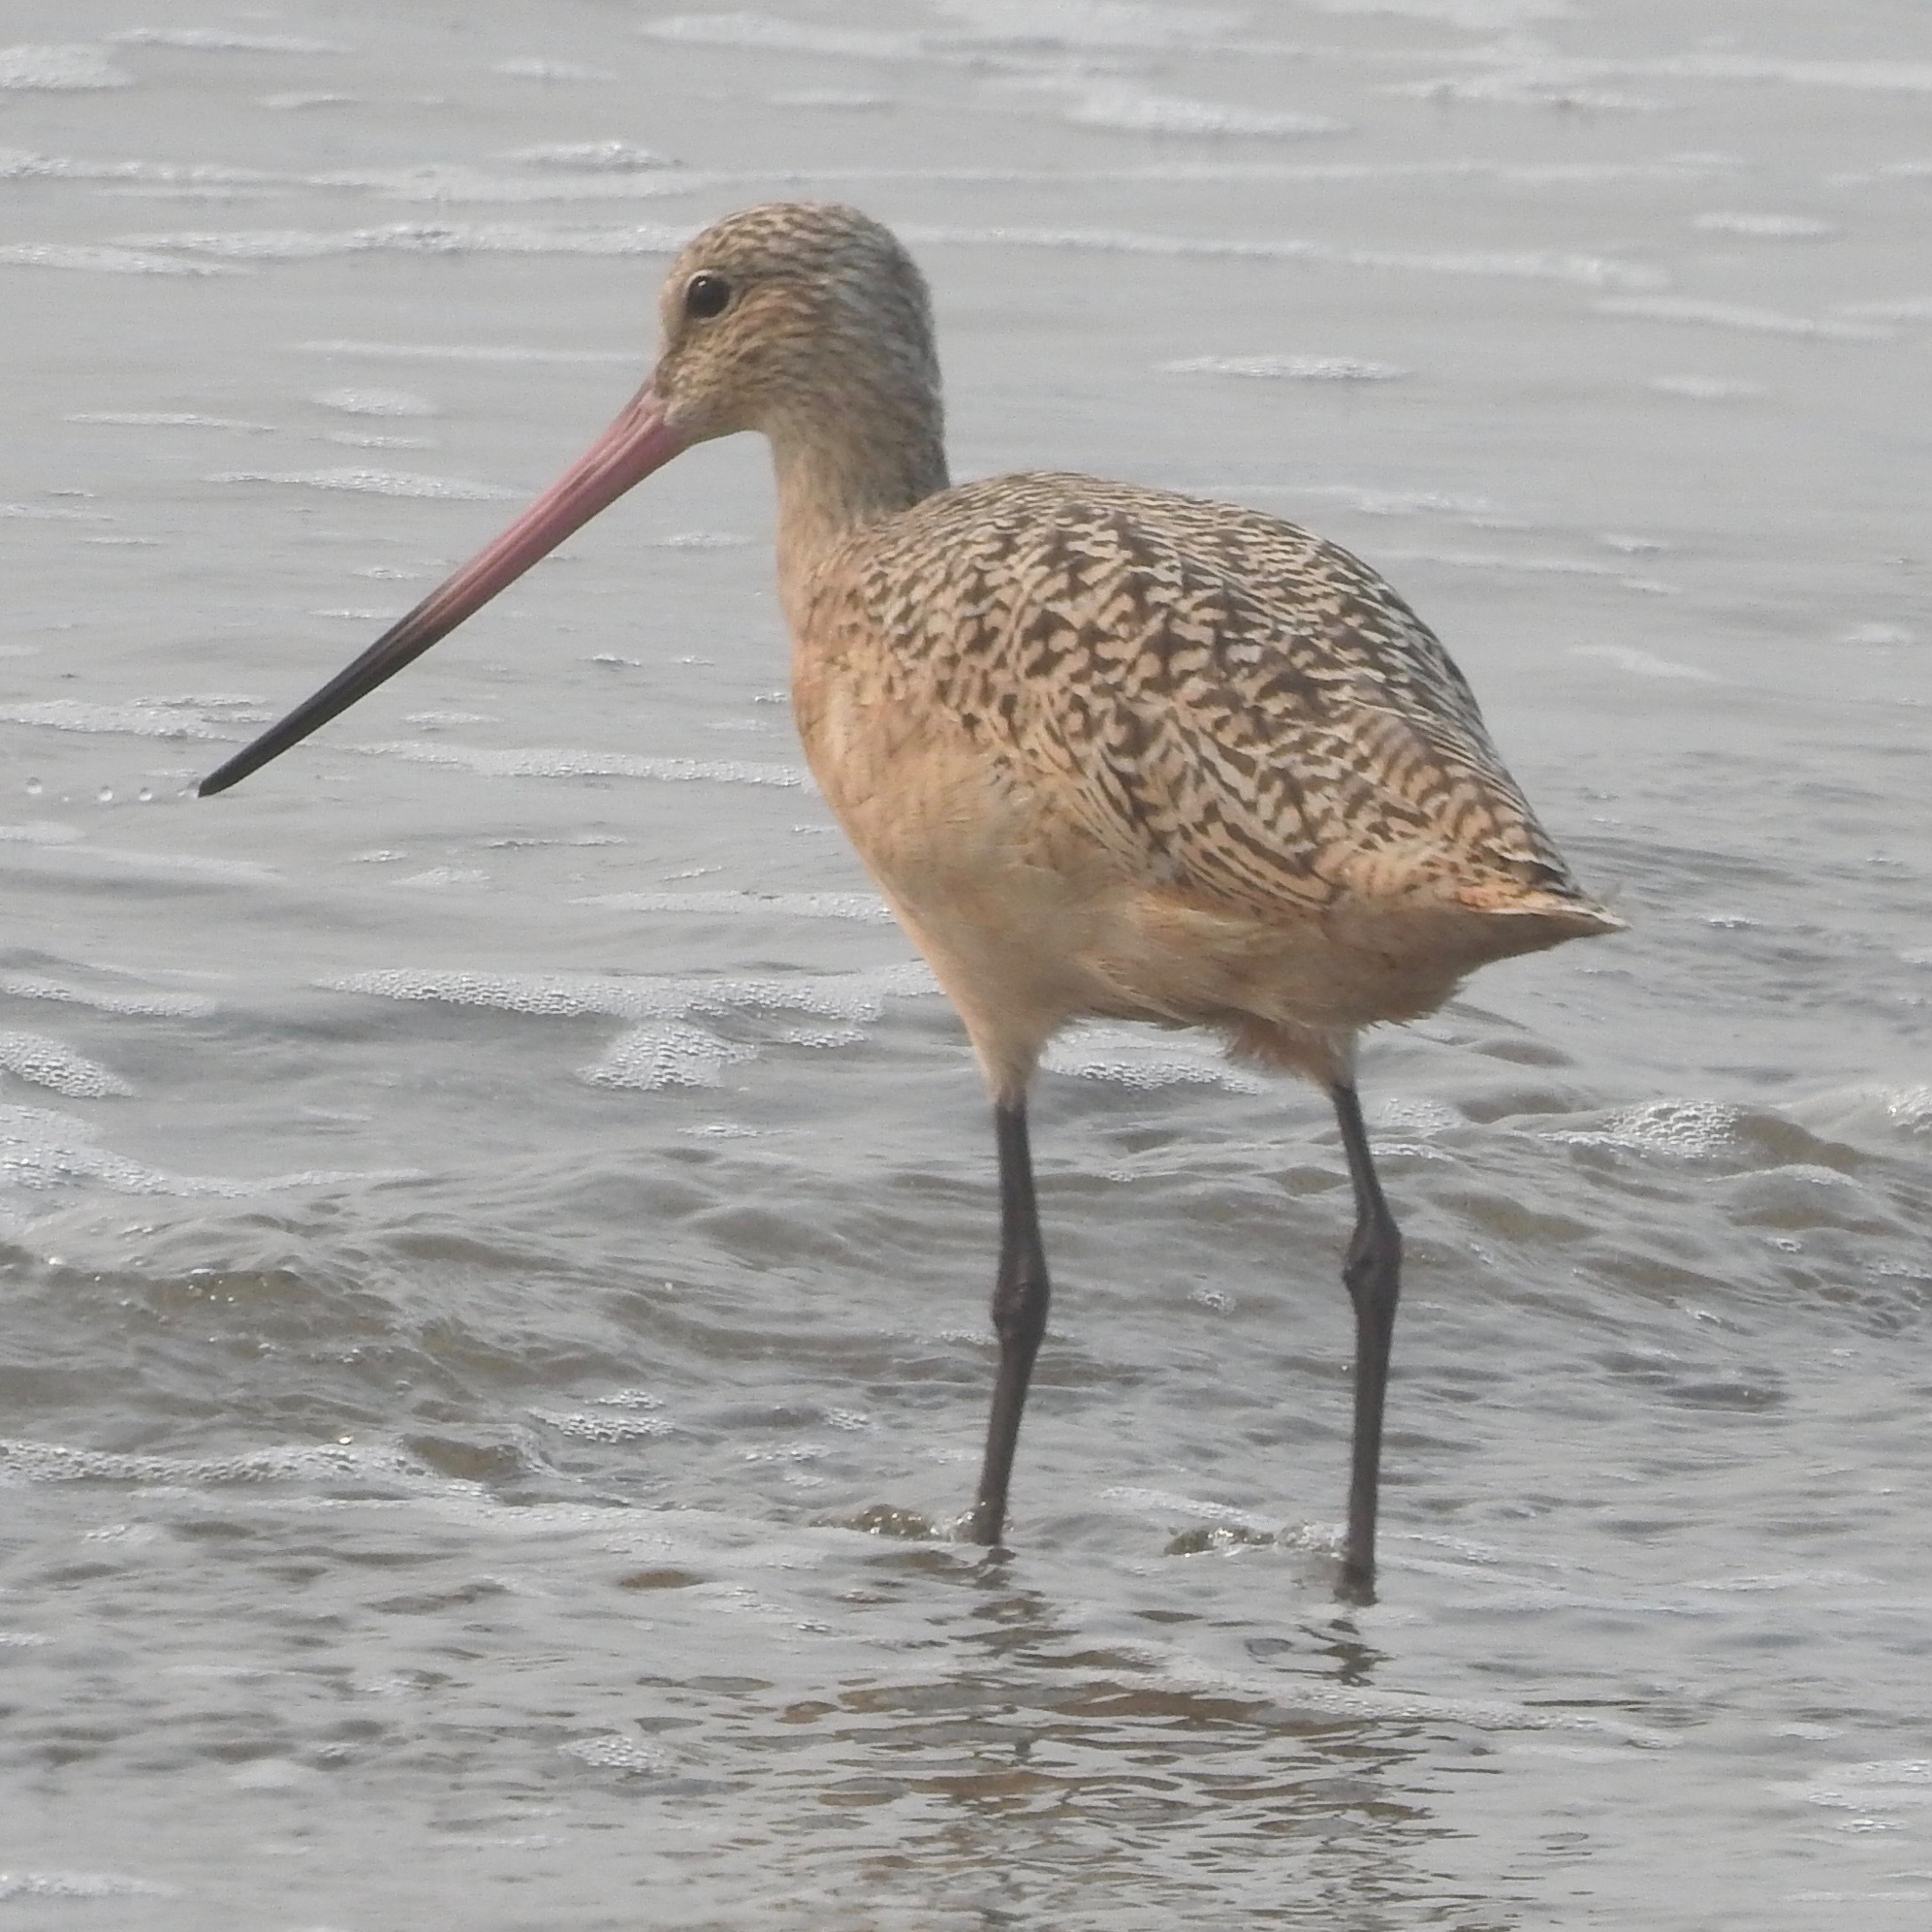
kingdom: Animalia
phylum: Chordata
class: Aves
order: Charadriiformes
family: Scolopacidae
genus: Limosa
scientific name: Limosa fedoa
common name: Marbled godwit
